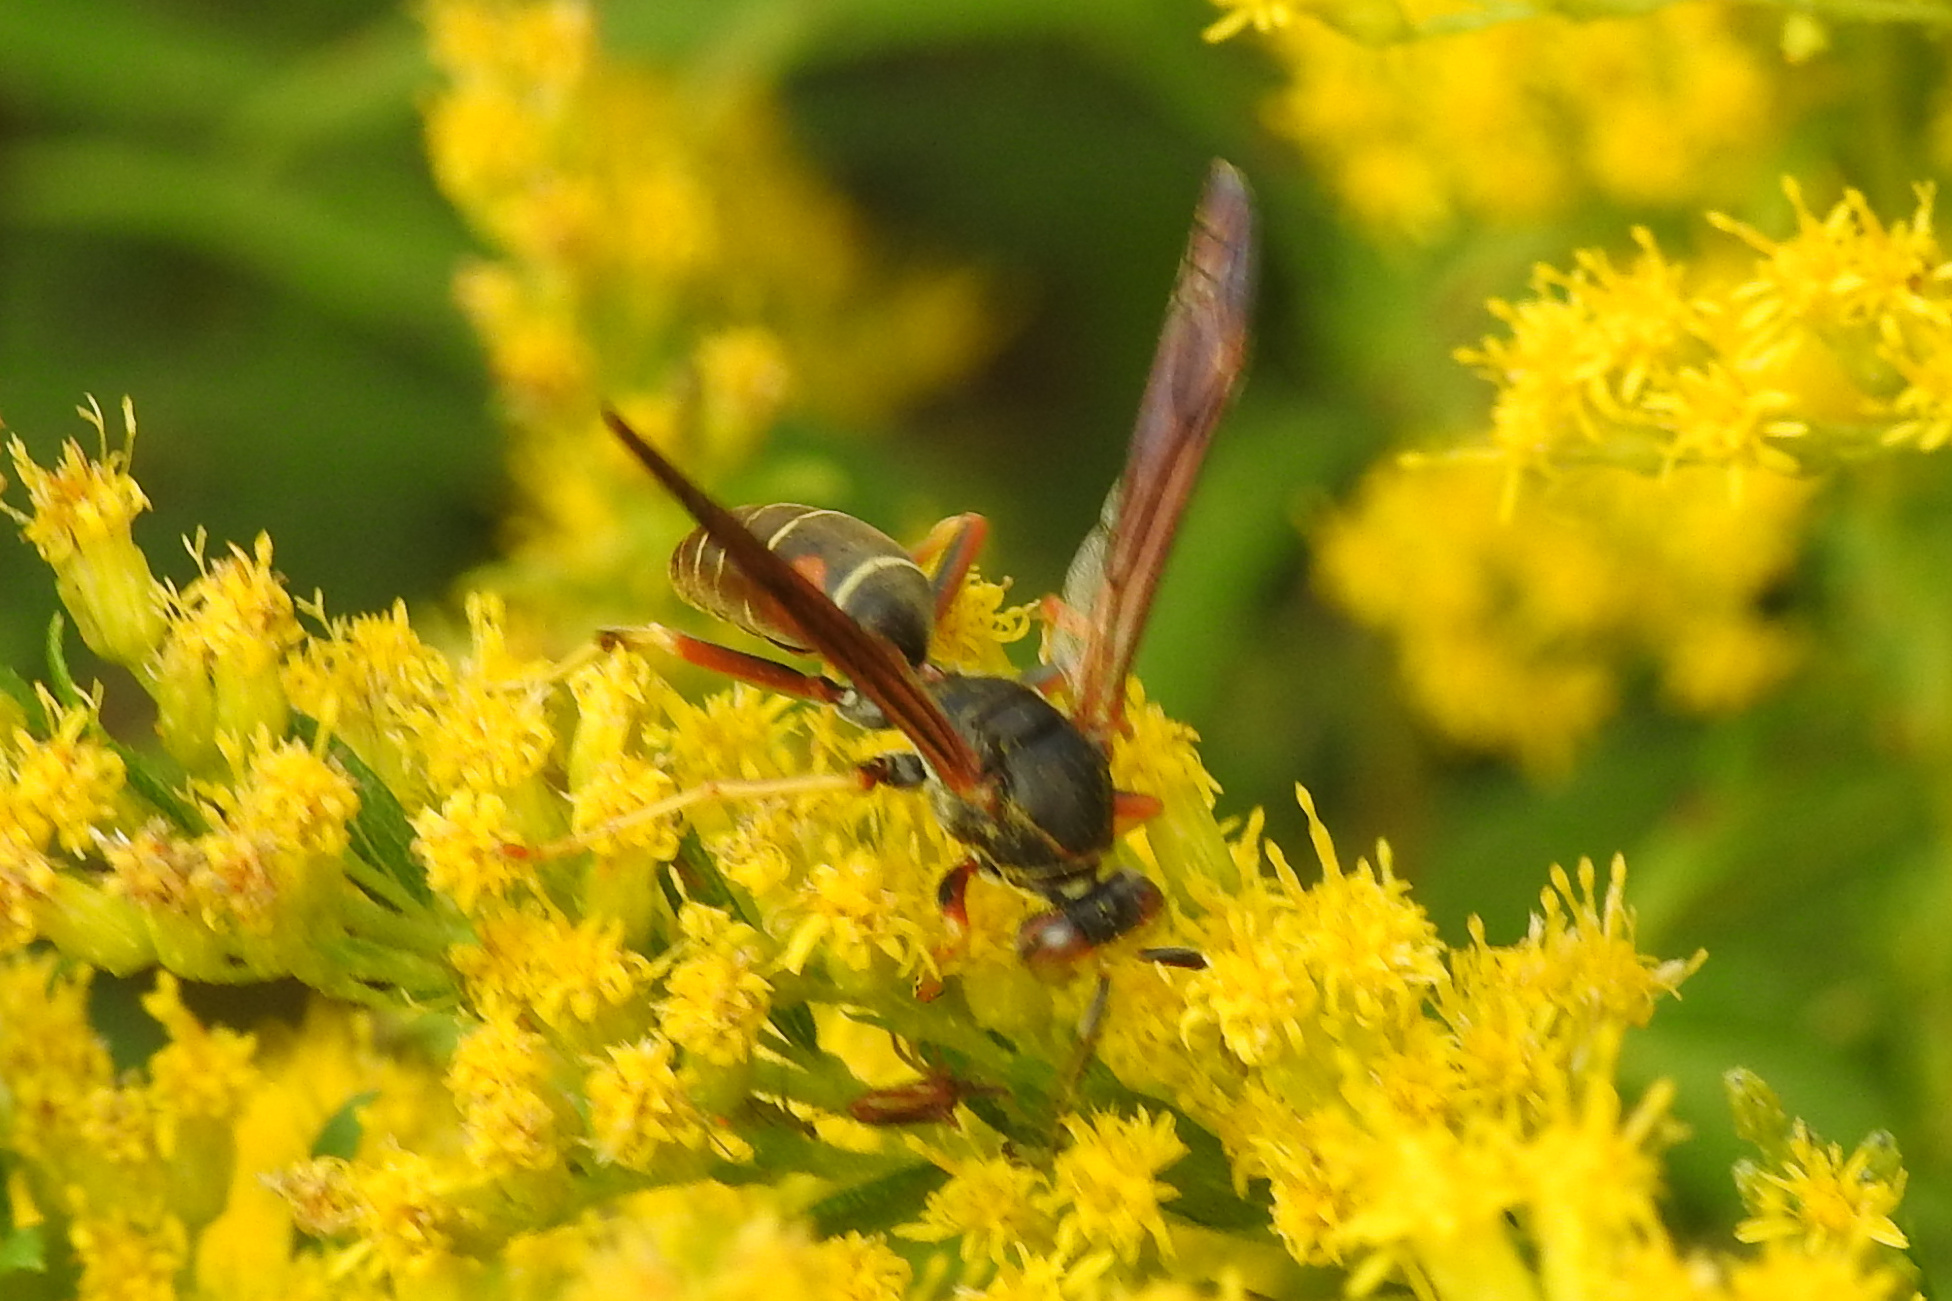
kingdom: Animalia
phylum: Arthropoda
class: Insecta
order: Hymenoptera
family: Eumenidae
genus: Polistes
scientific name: Polistes fuscatus
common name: Dark paper wasp
